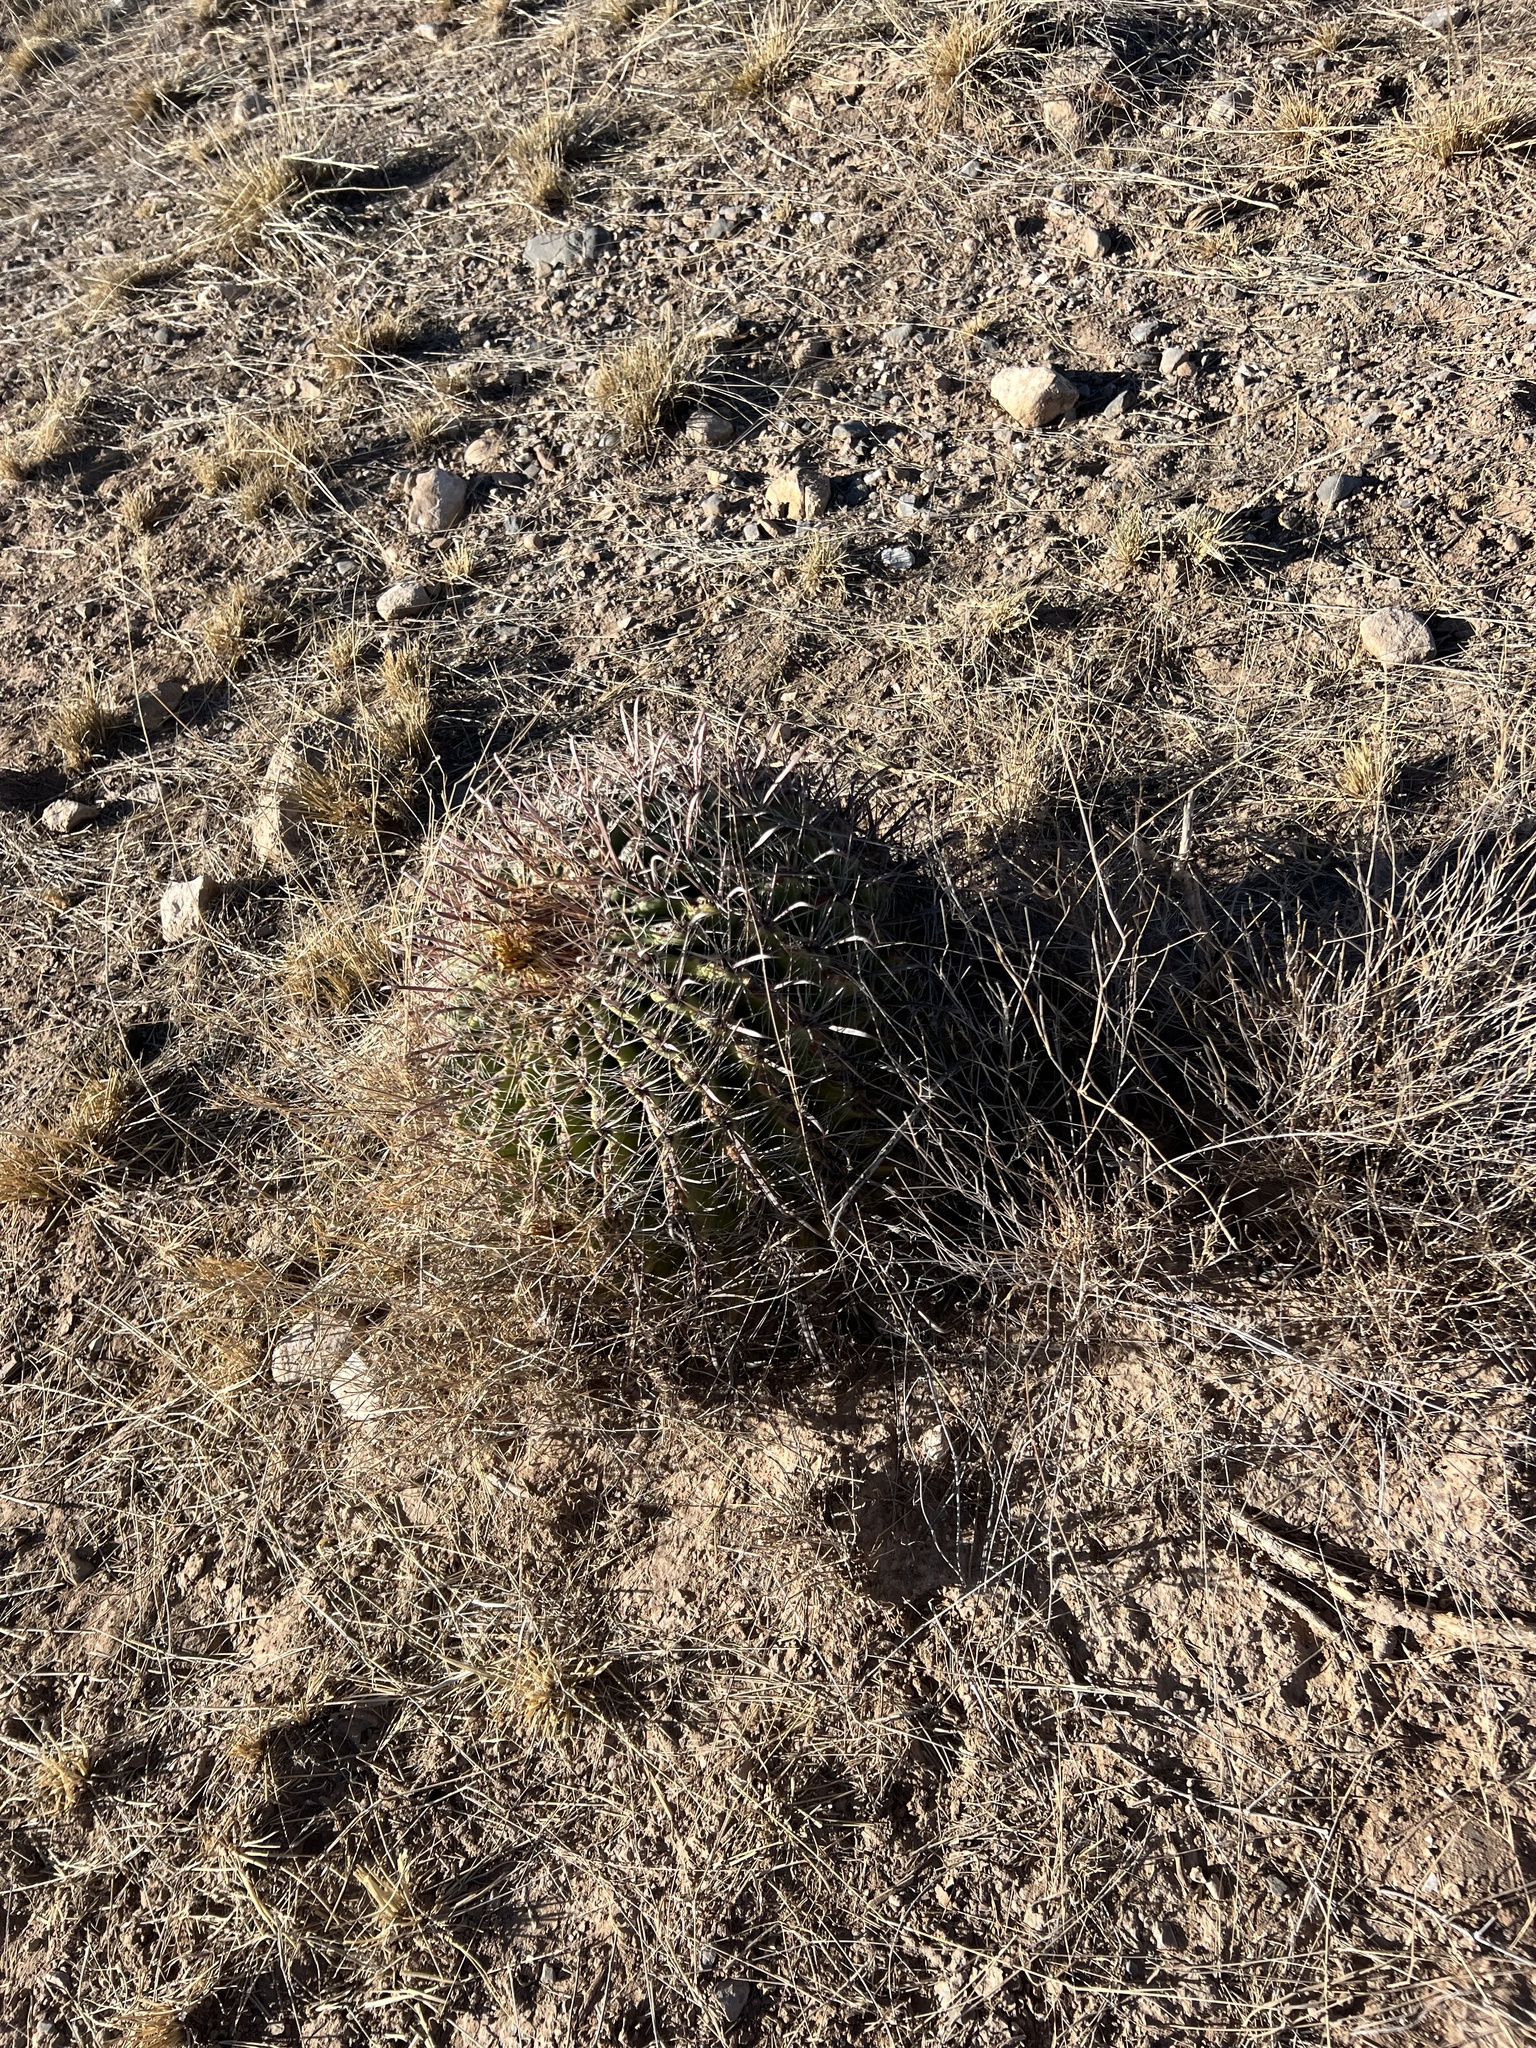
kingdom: Plantae
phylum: Tracheophyta
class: Magnoliopsida
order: Caryophyllales
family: Cactaceae
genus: Ferocactus
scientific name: Ferocactus wislizeni
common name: Candy barrel cactus
